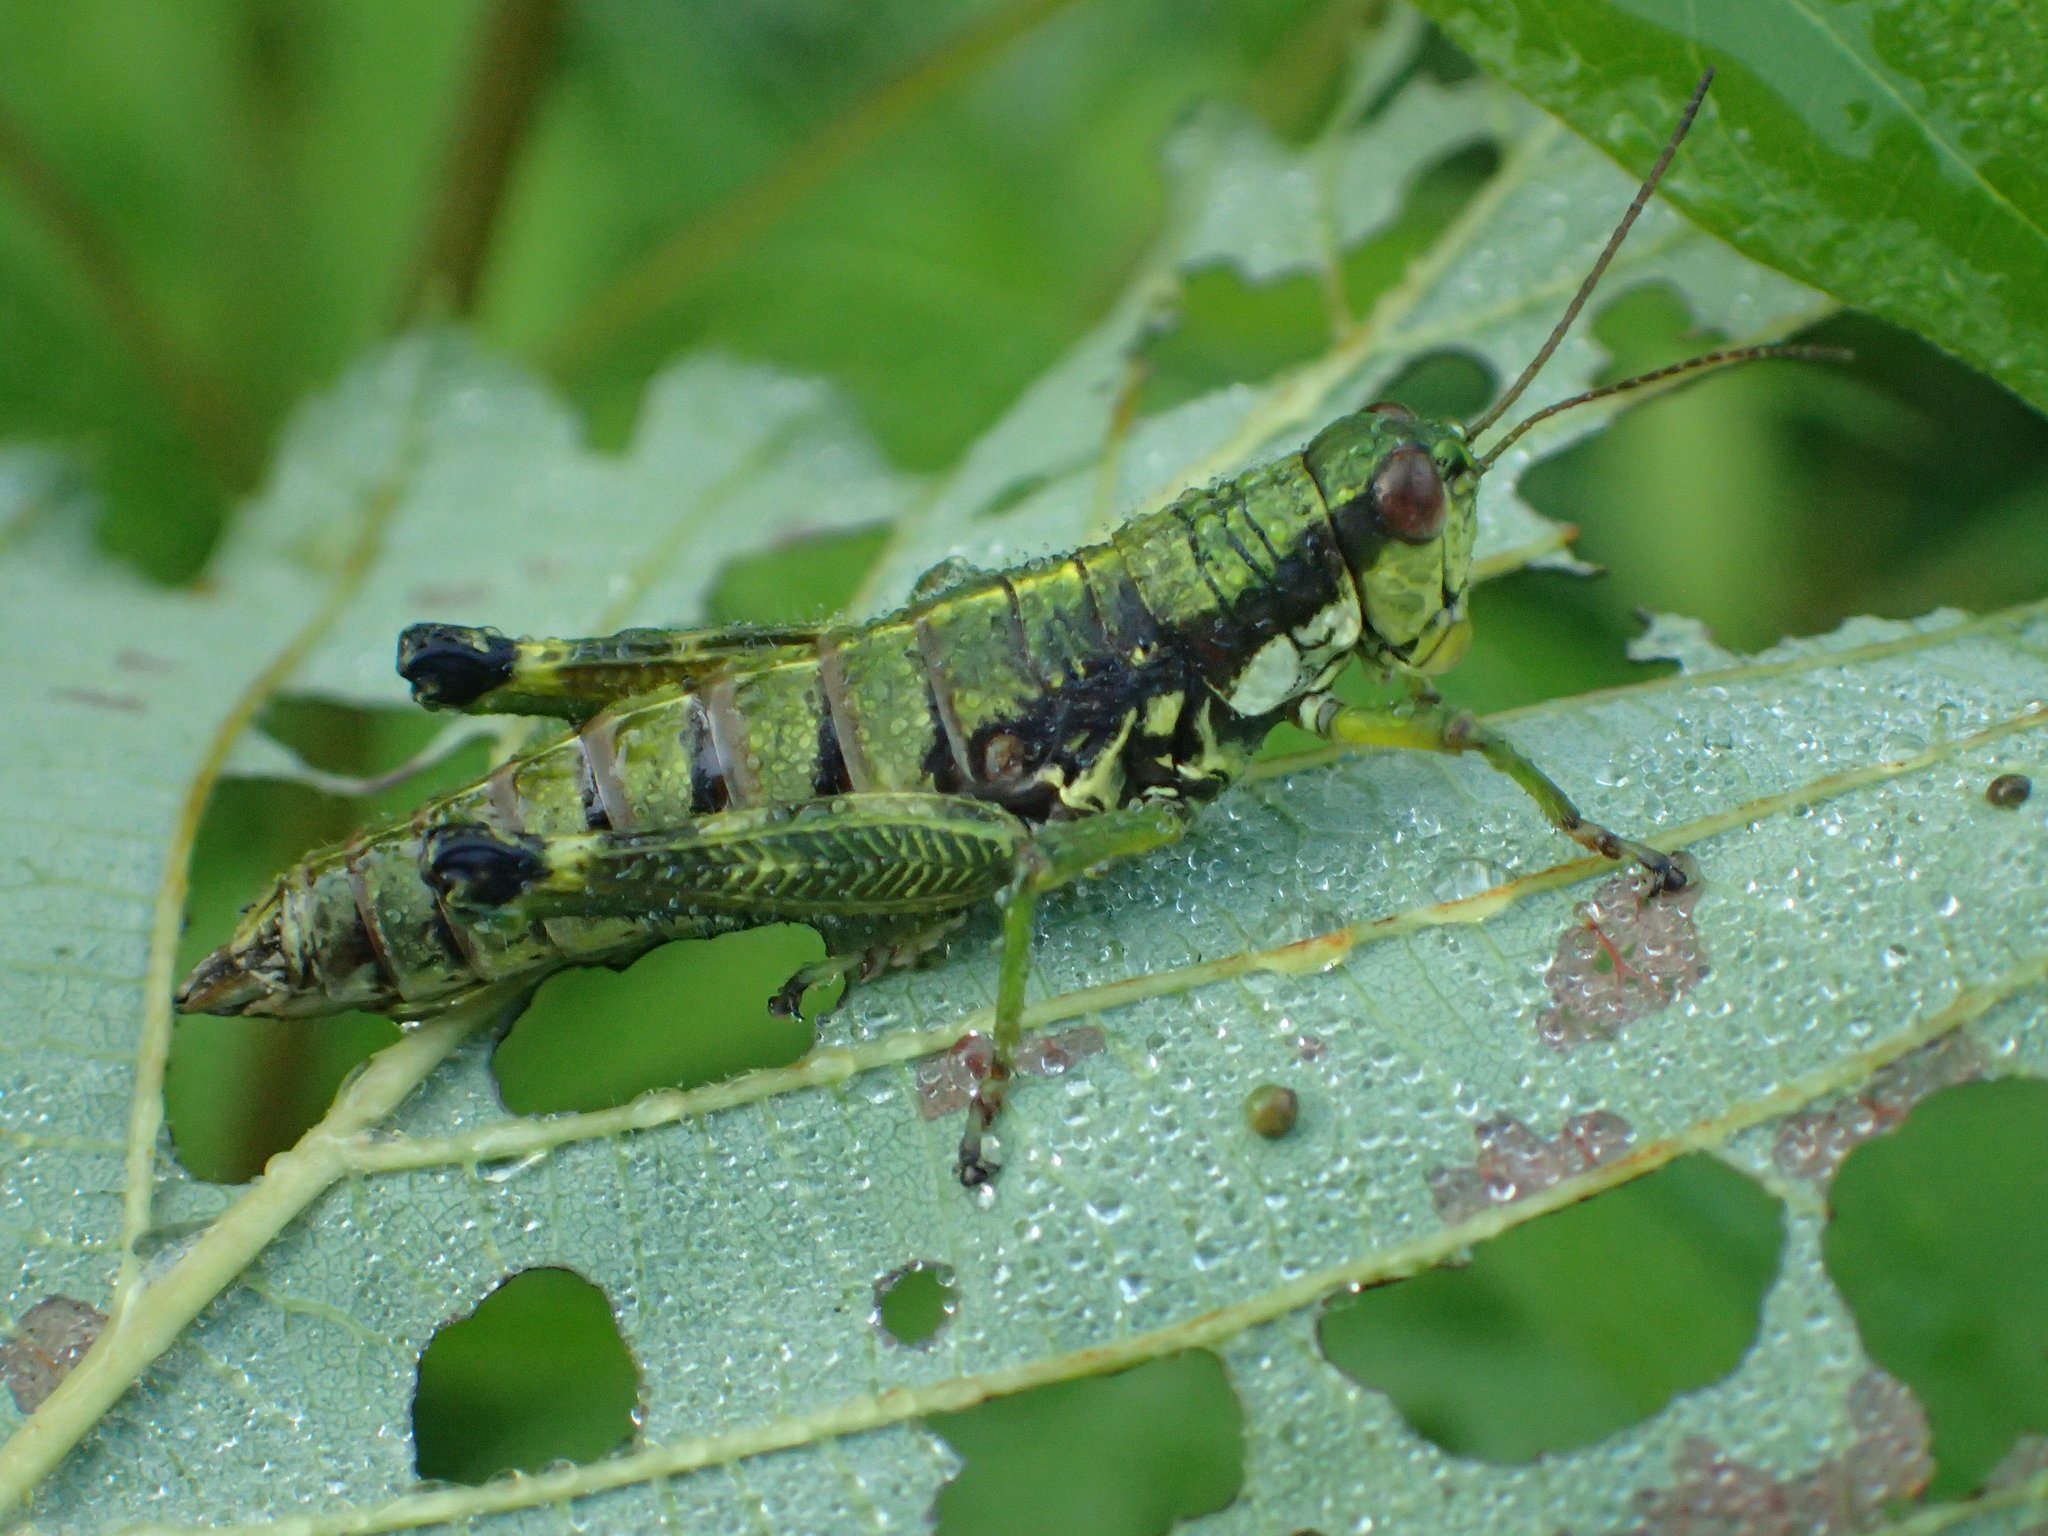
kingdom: Animalia
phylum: Arthropoda
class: Insecta
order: Orthoptera
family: Acrididae
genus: Booneacris
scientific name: Booneacris glacialis
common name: Wingless mountain grasshopper
